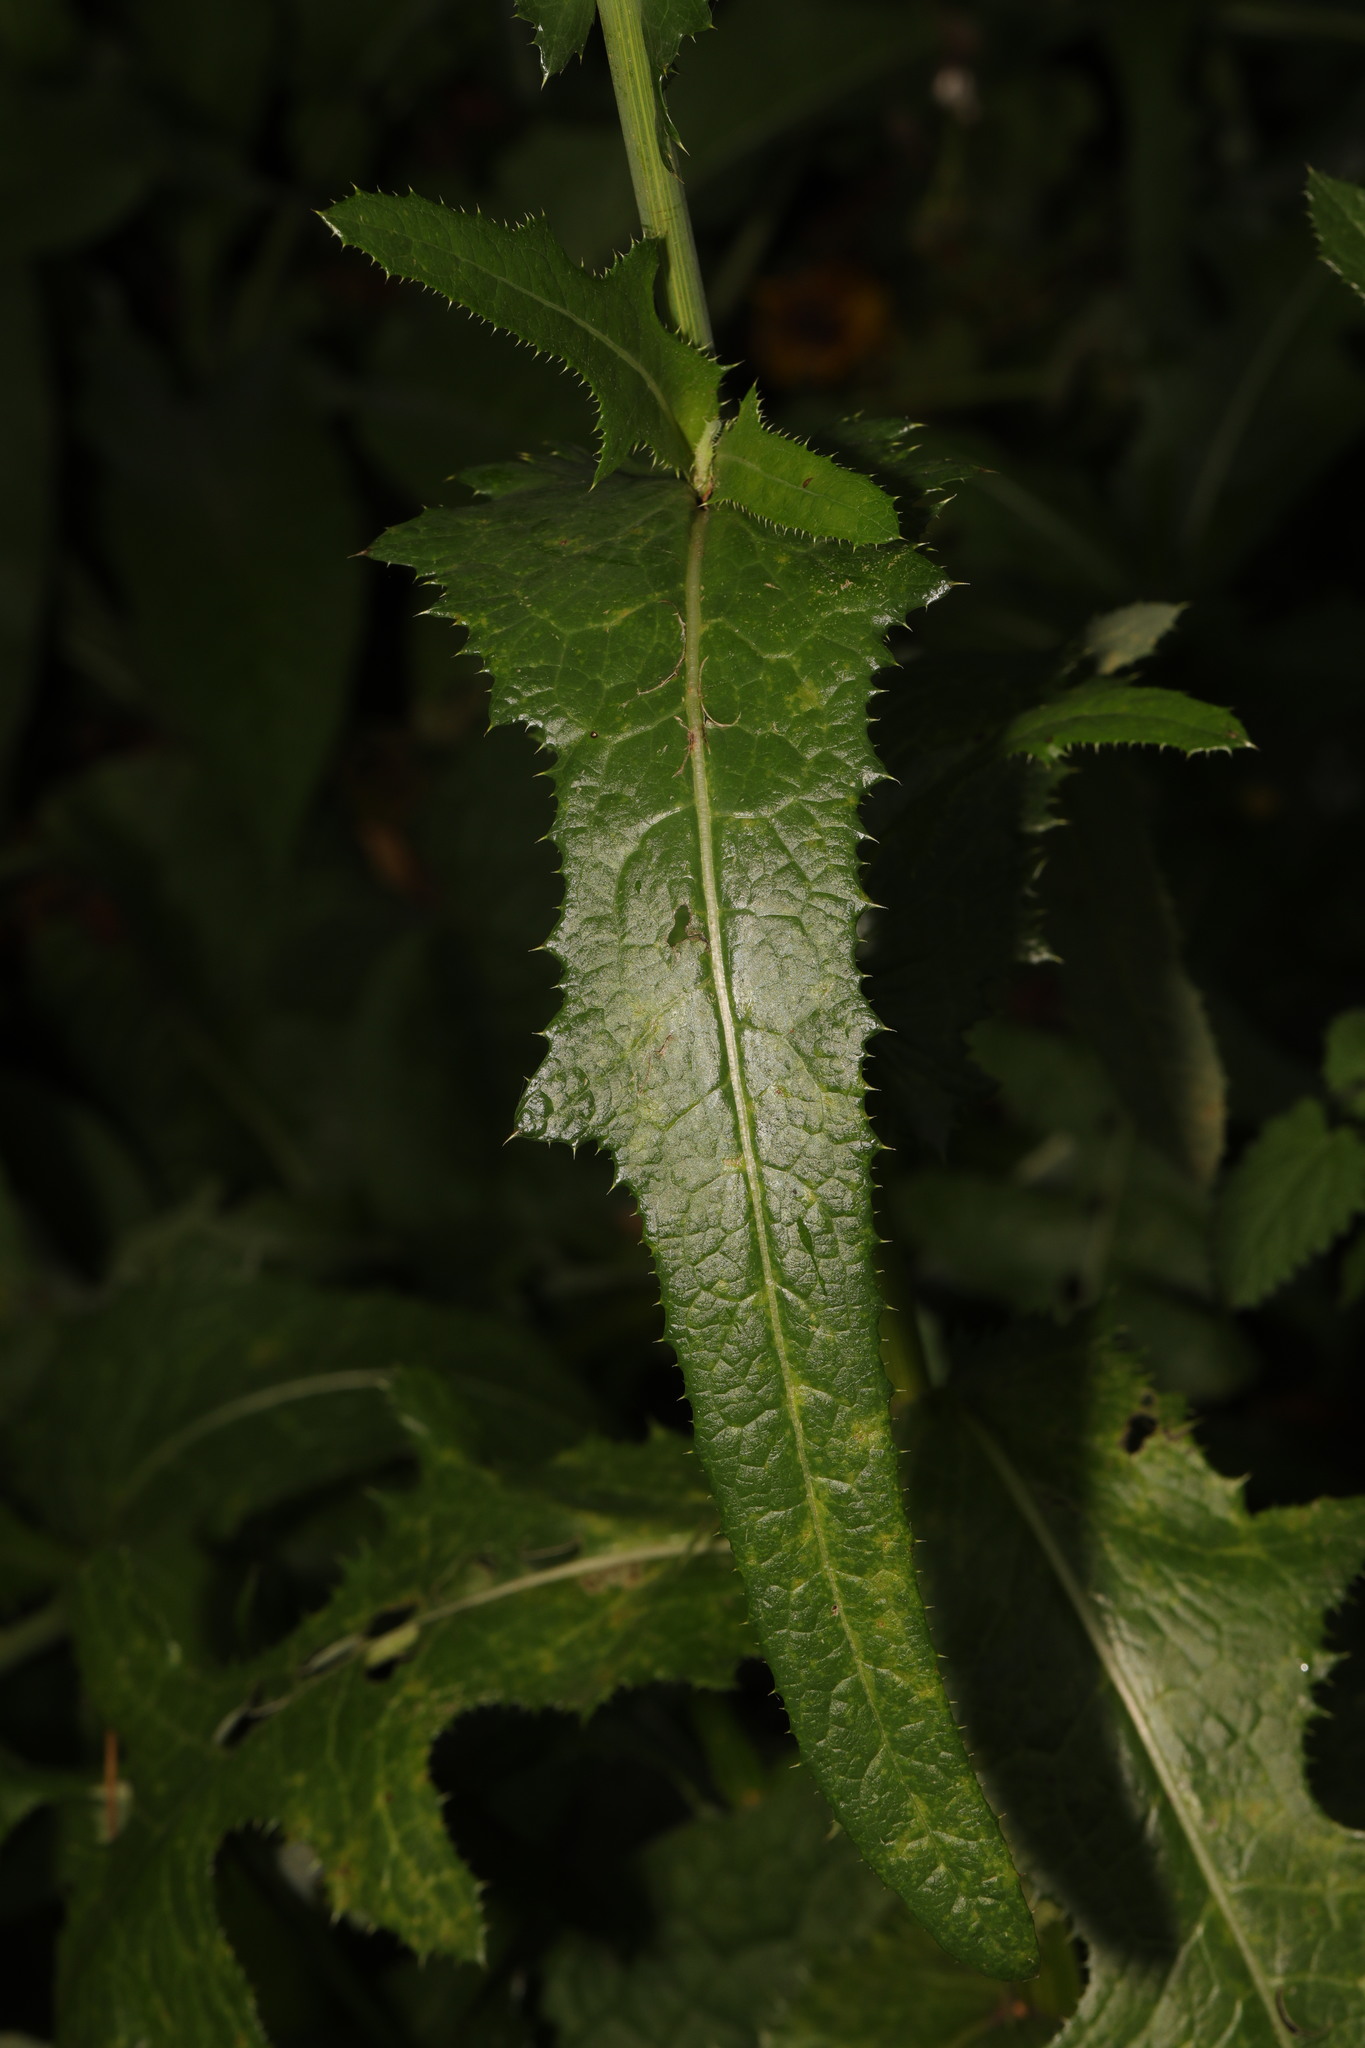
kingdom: Plantae
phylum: Tracheophyta
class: Magnoliopsida
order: Asterales
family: Asteraceae
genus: Sonchus
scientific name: Sonchus arvensis
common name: Perennial sow-thistle
